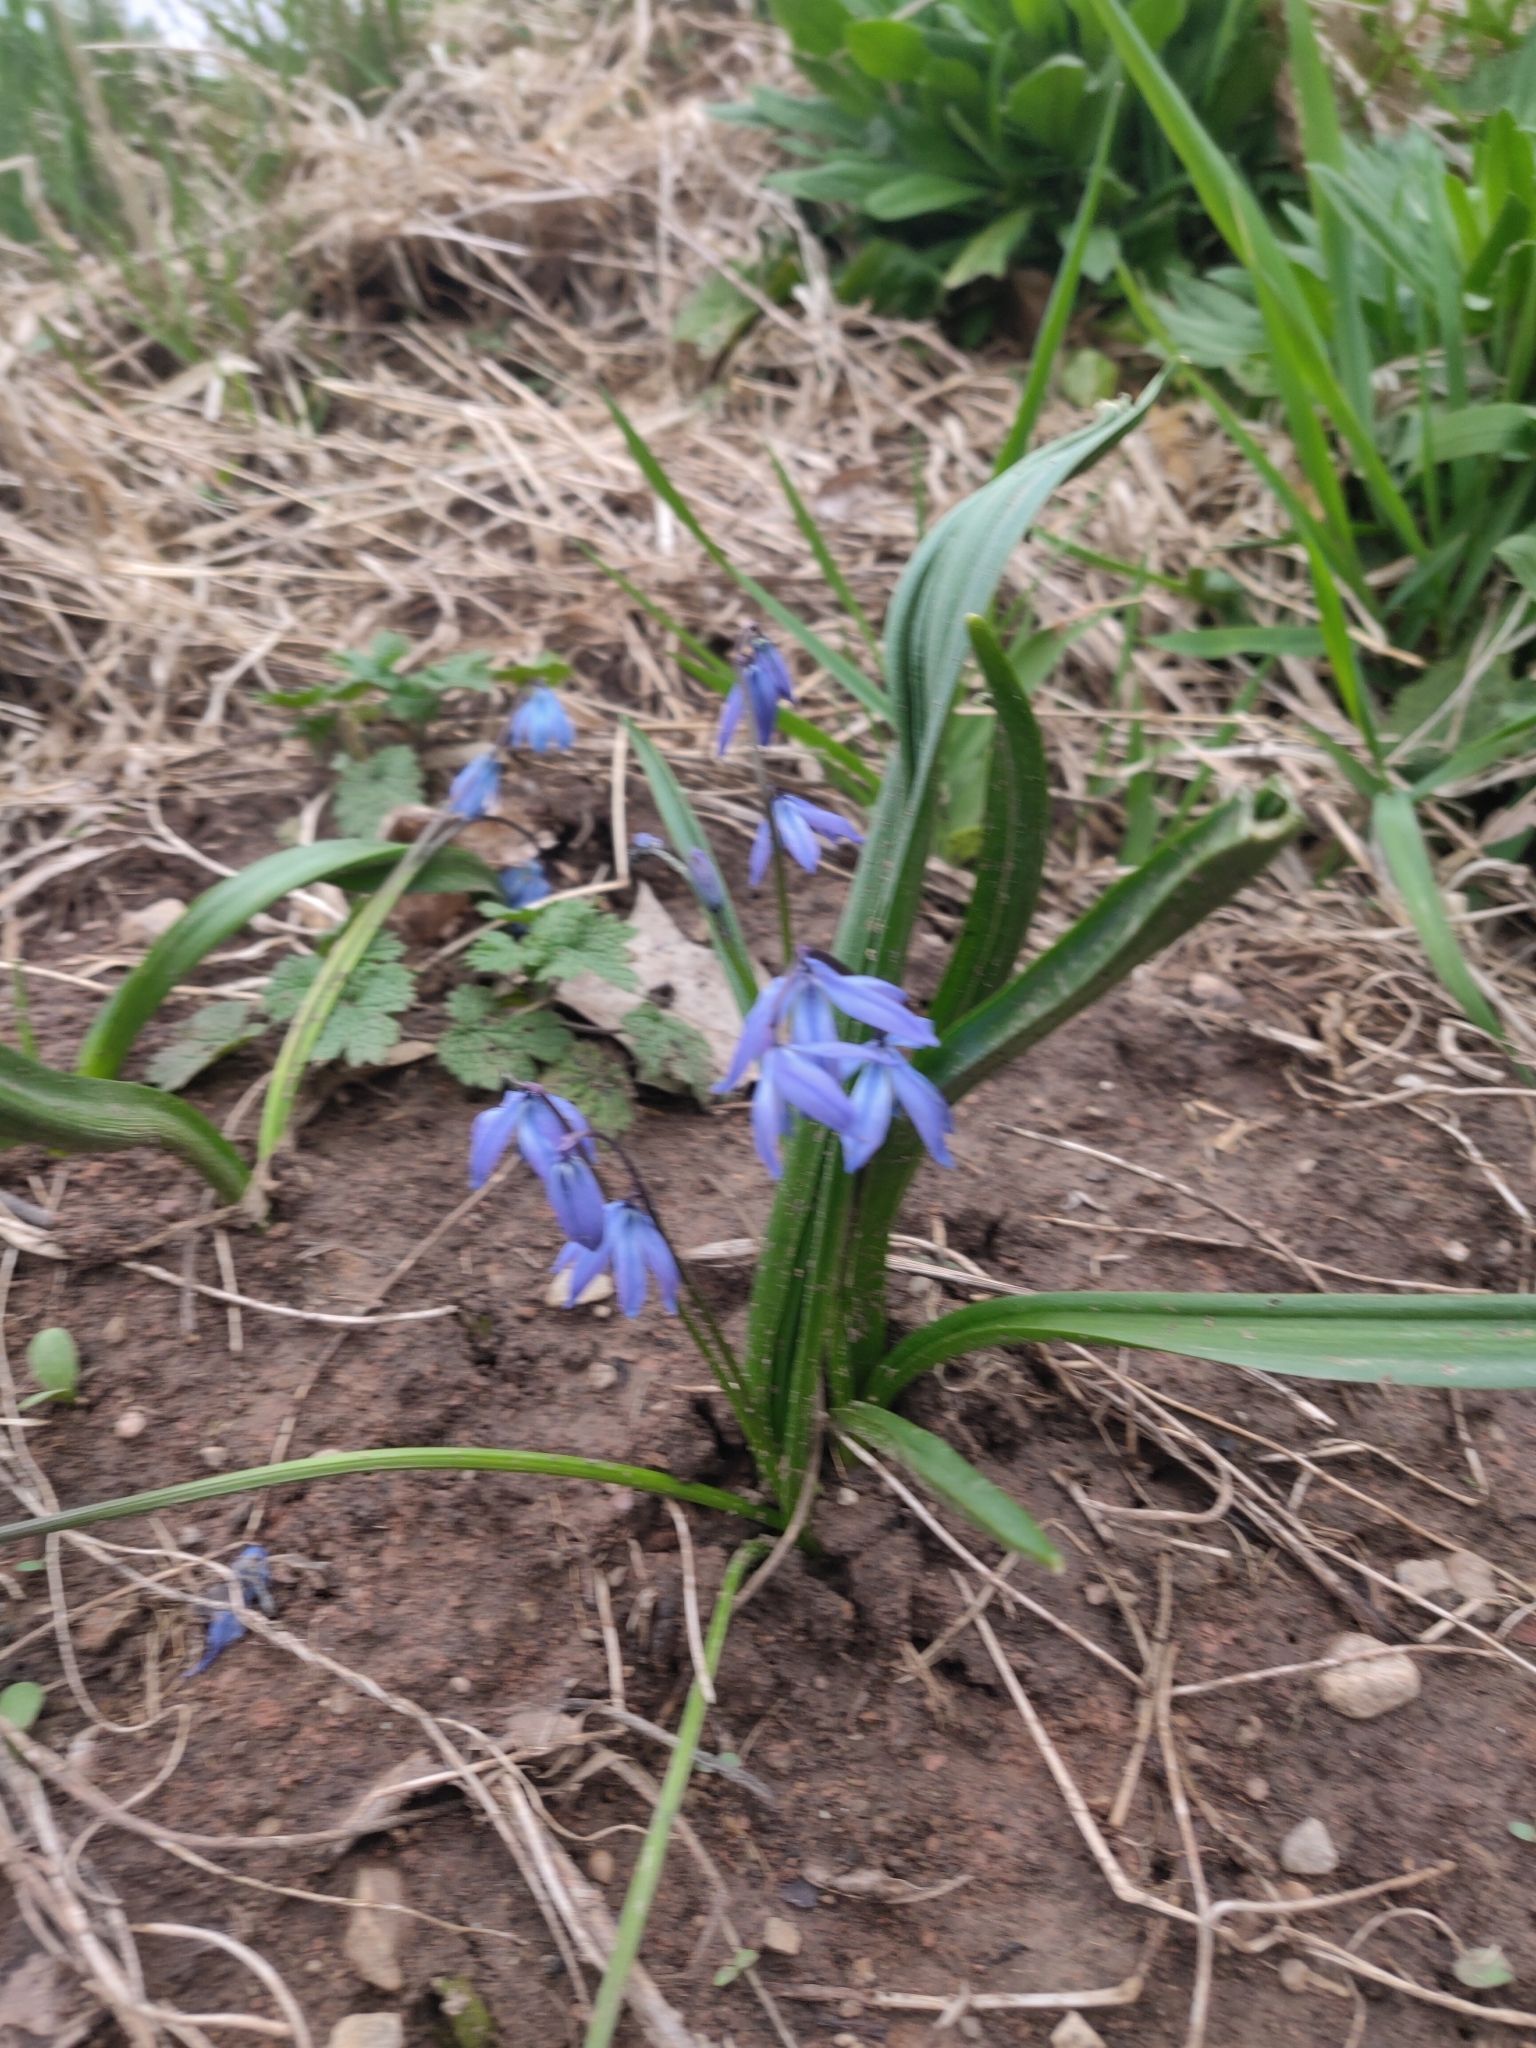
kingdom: Plantae
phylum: Tracheophyta
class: Liliopsida
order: Asparagales
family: Asparagaceae
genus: Scilla
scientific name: Scilla siberica
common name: Siberian squill
